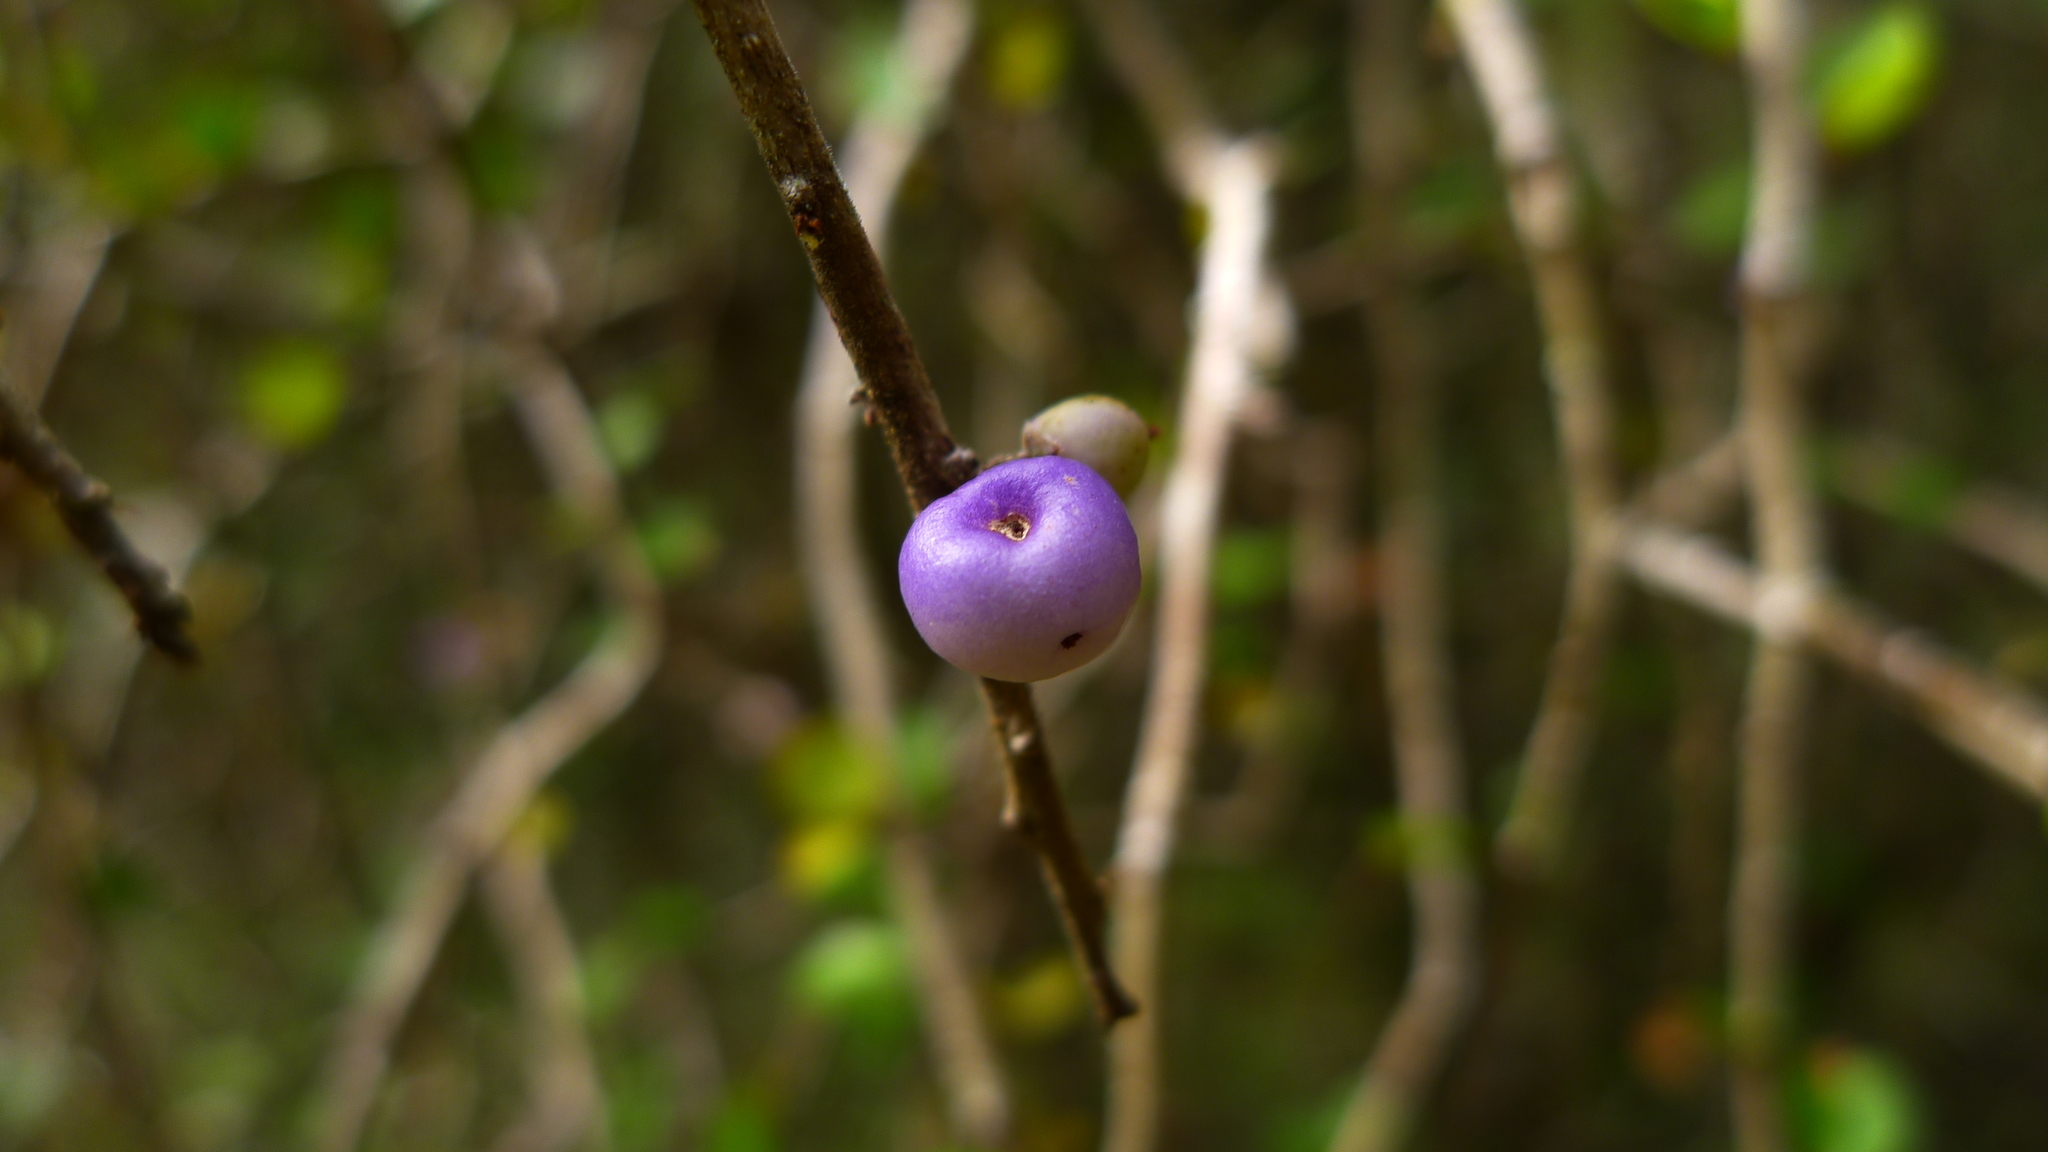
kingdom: Plantae
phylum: Tracheophyta
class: Magnoliopsida
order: Ericales
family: Primulaceae
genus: Myrsine
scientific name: Myrsine divaricata
